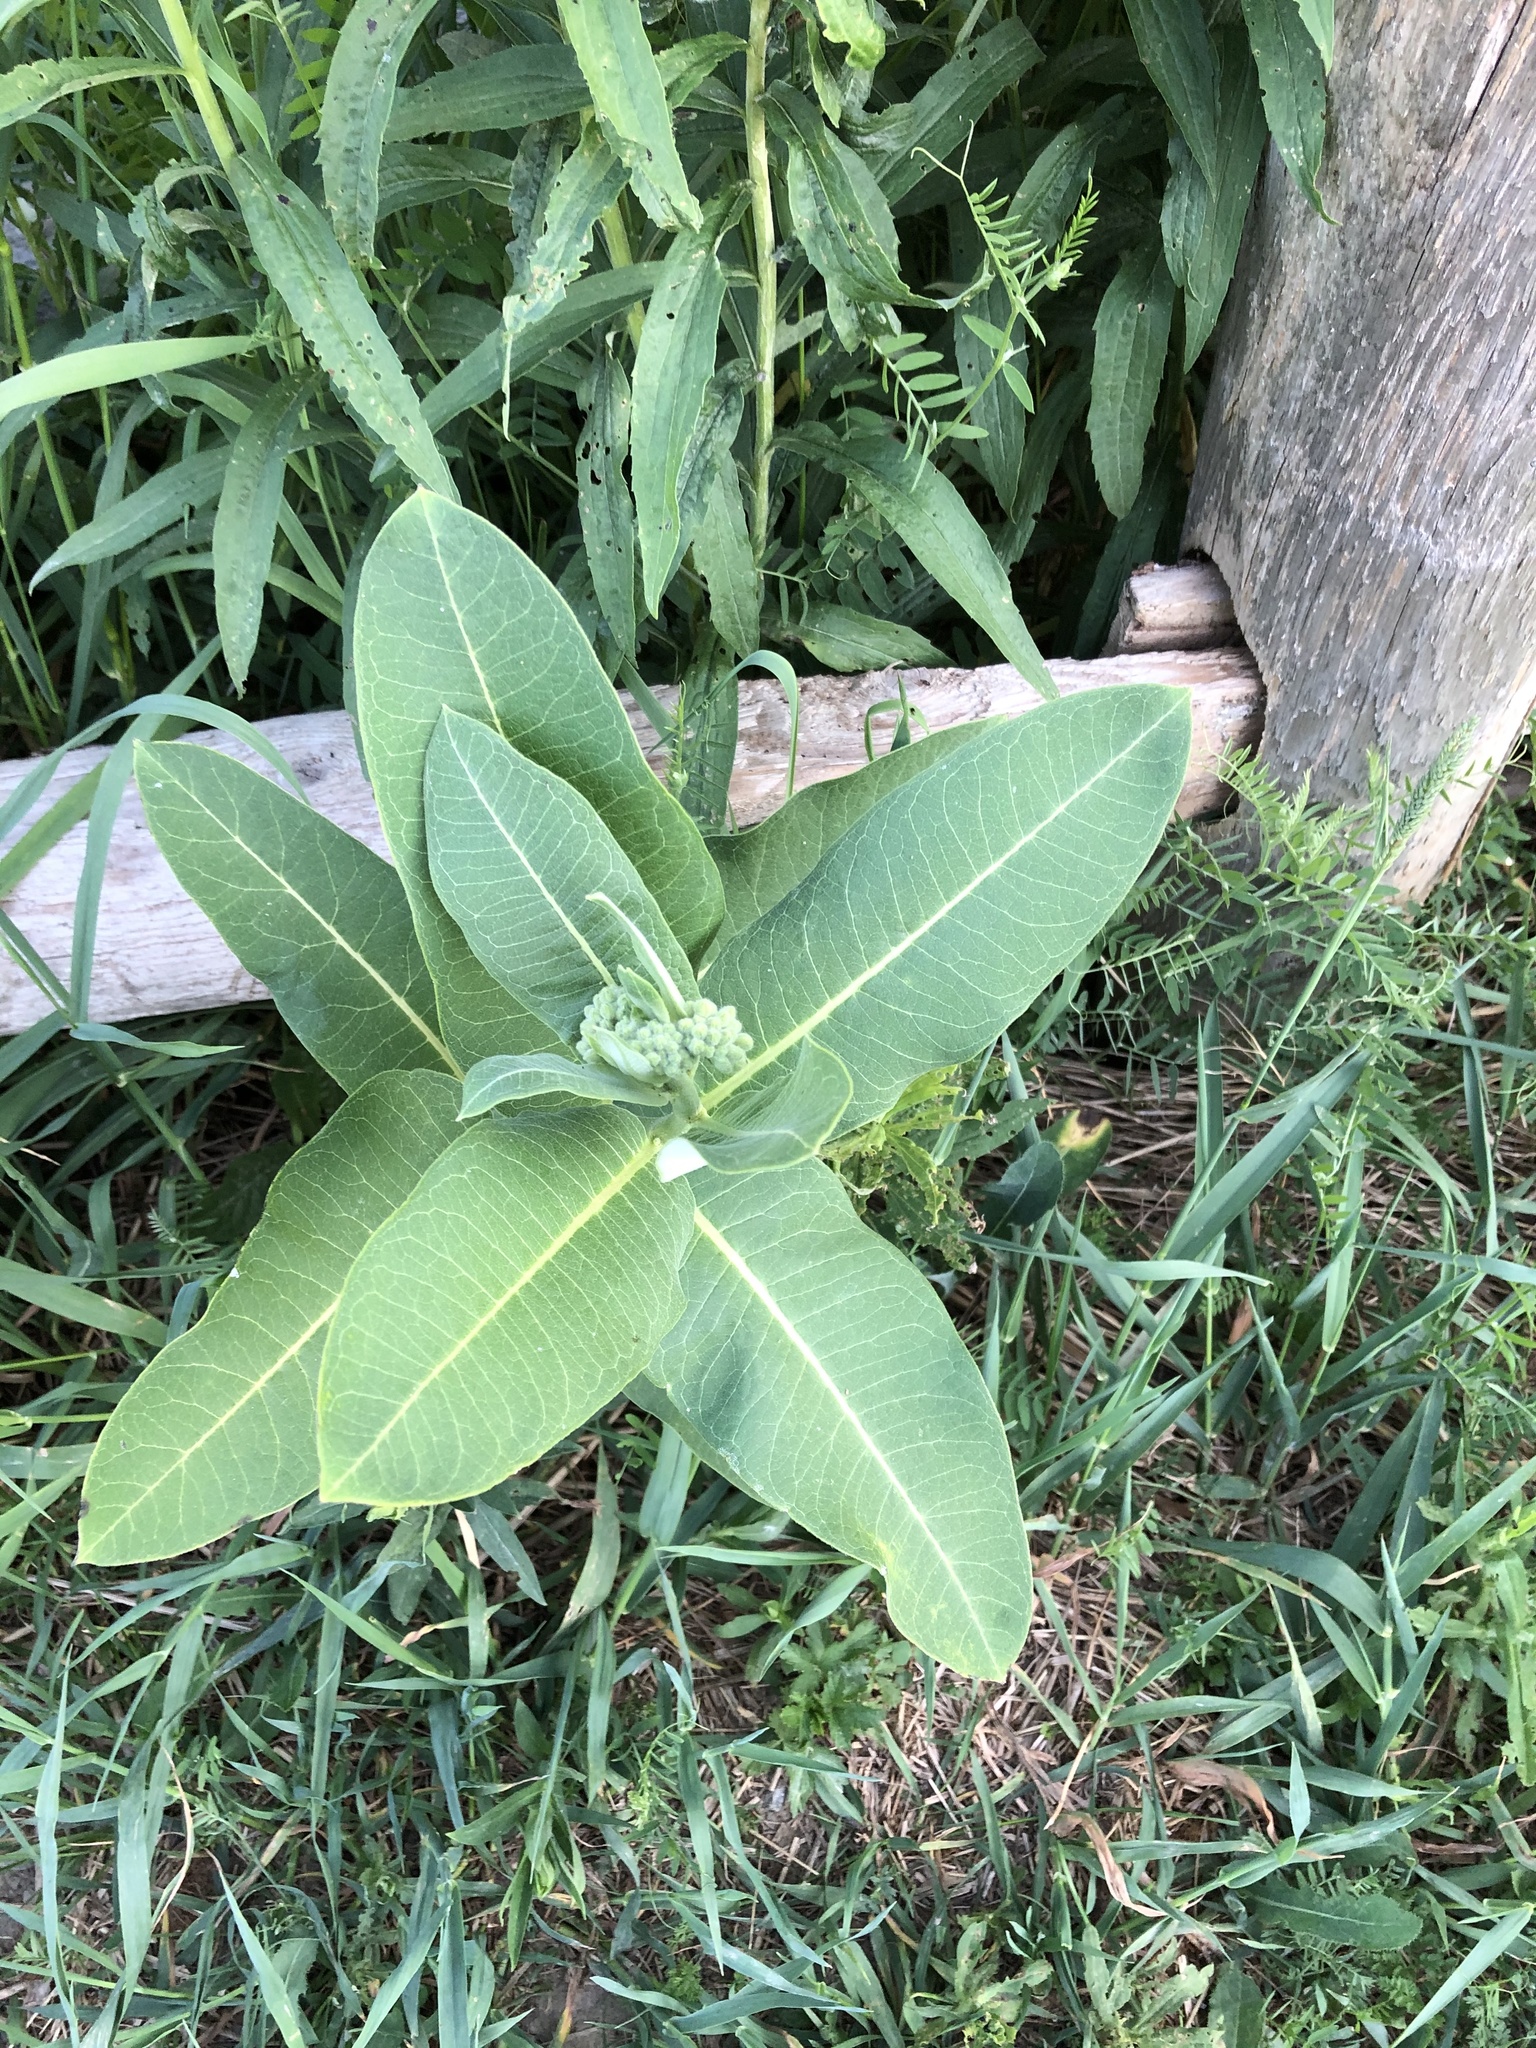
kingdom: Plantae
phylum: Tracheophyta
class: Magnoliopsida
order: Gentianales
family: Apocynaceae
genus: Asclepias
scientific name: Asclepias syriaca
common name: Common milkweed
